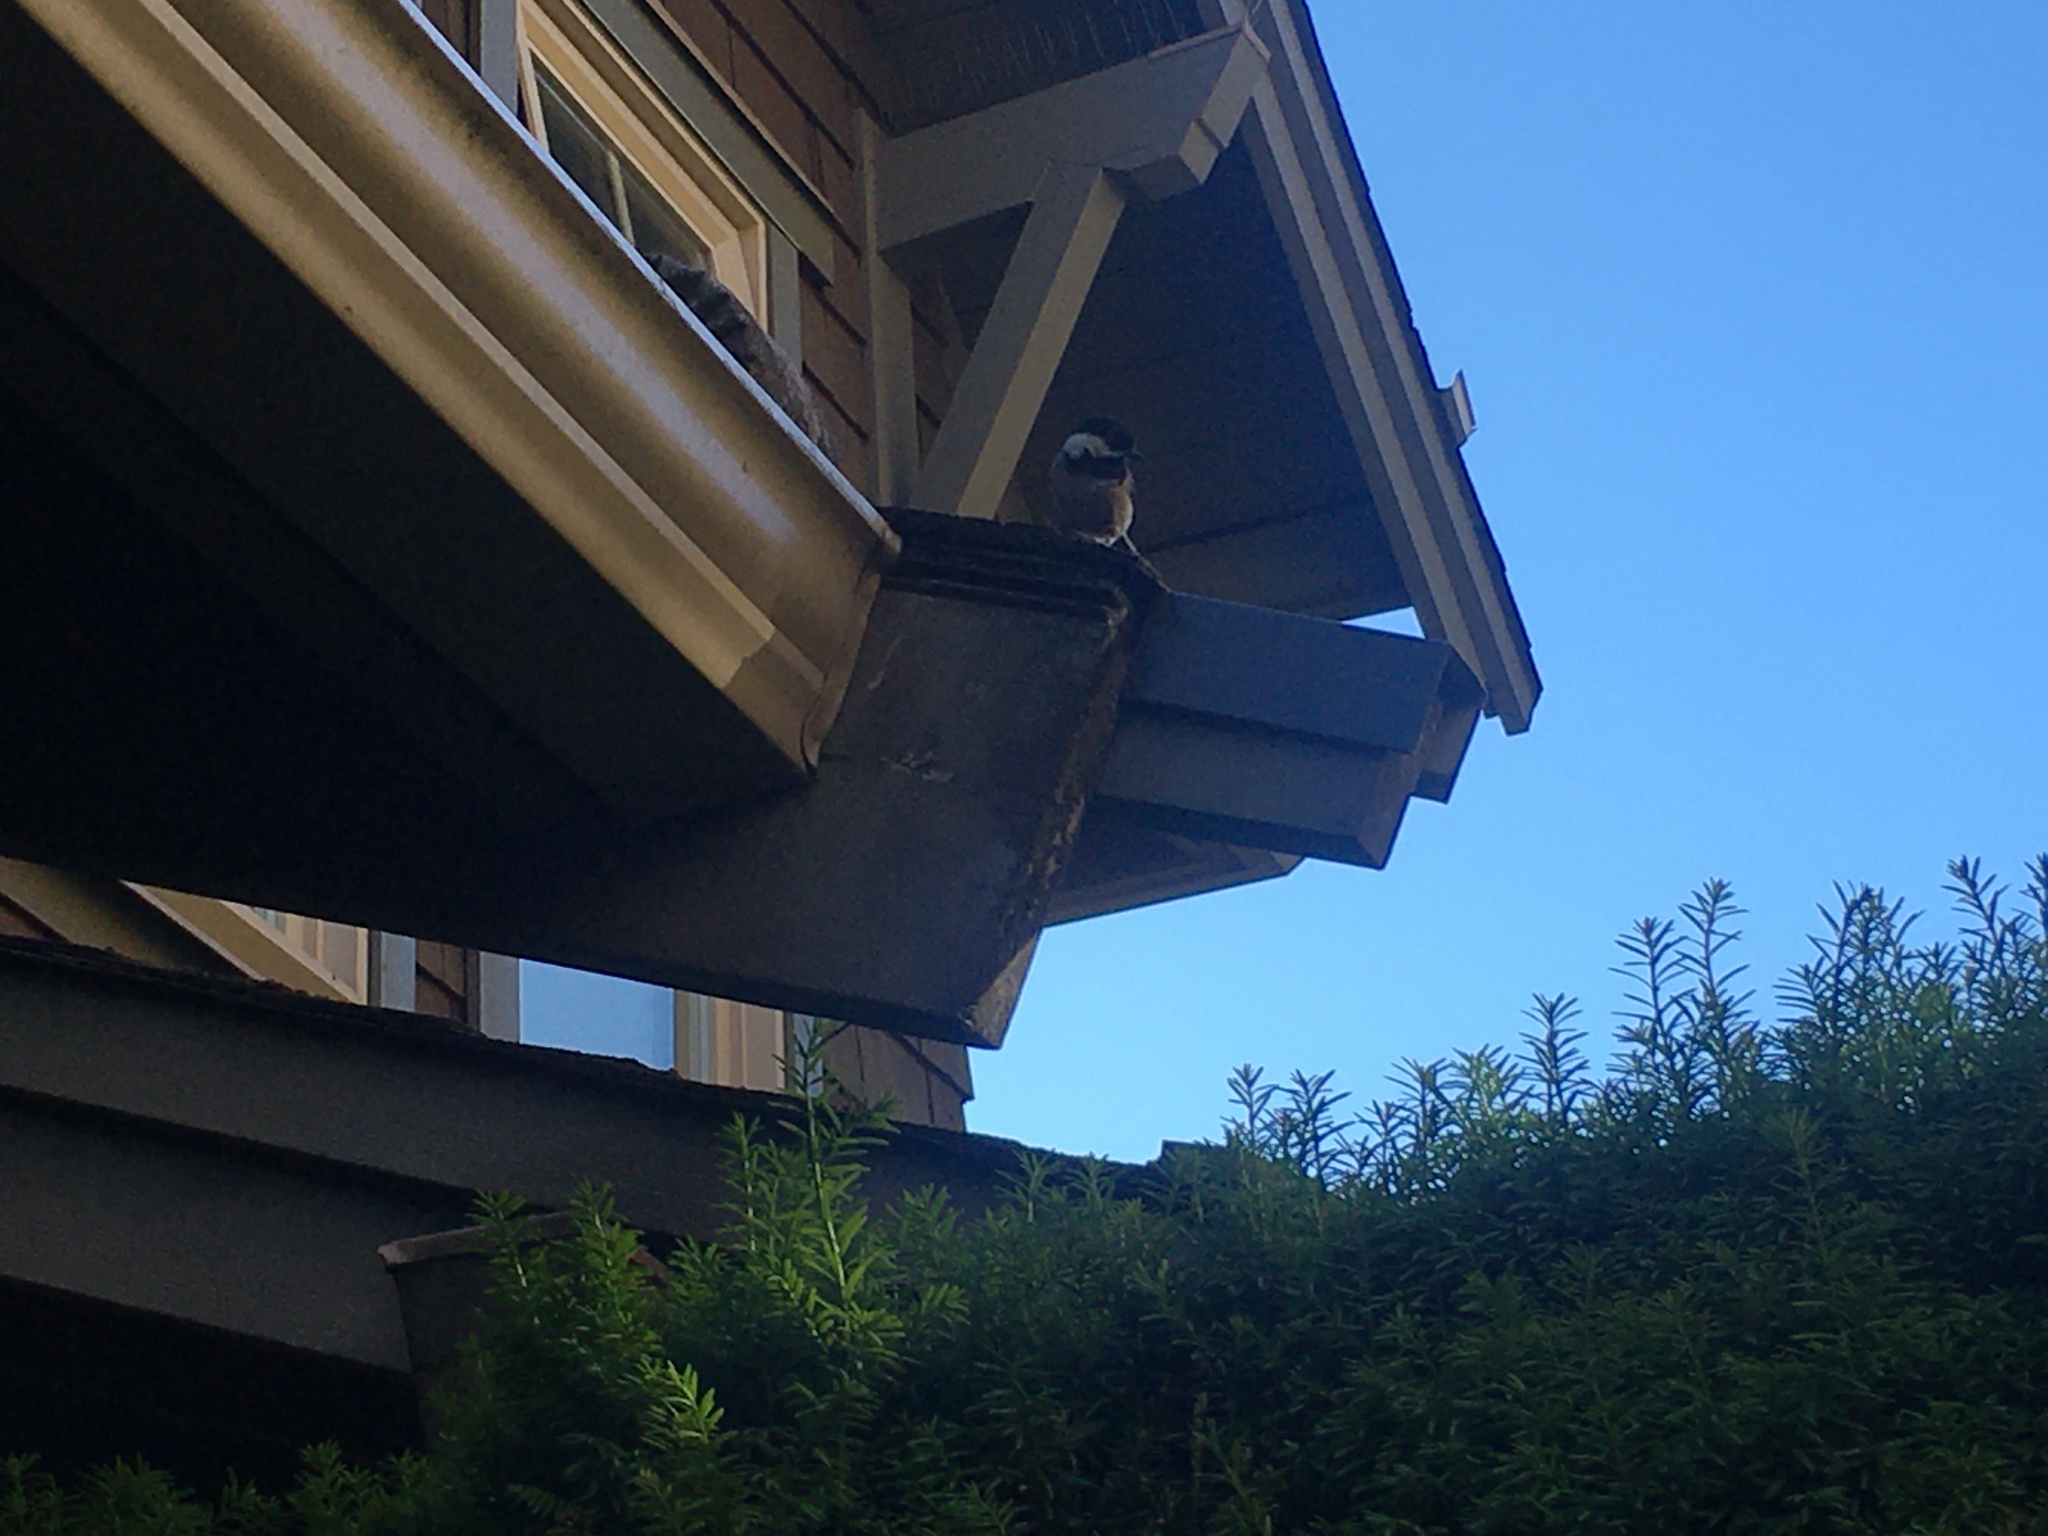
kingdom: Animalia
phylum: Chordata
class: Aves
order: Passeriformes
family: Paridae
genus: Poecile
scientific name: Poecile atricapillus
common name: Black-capped chickadee
